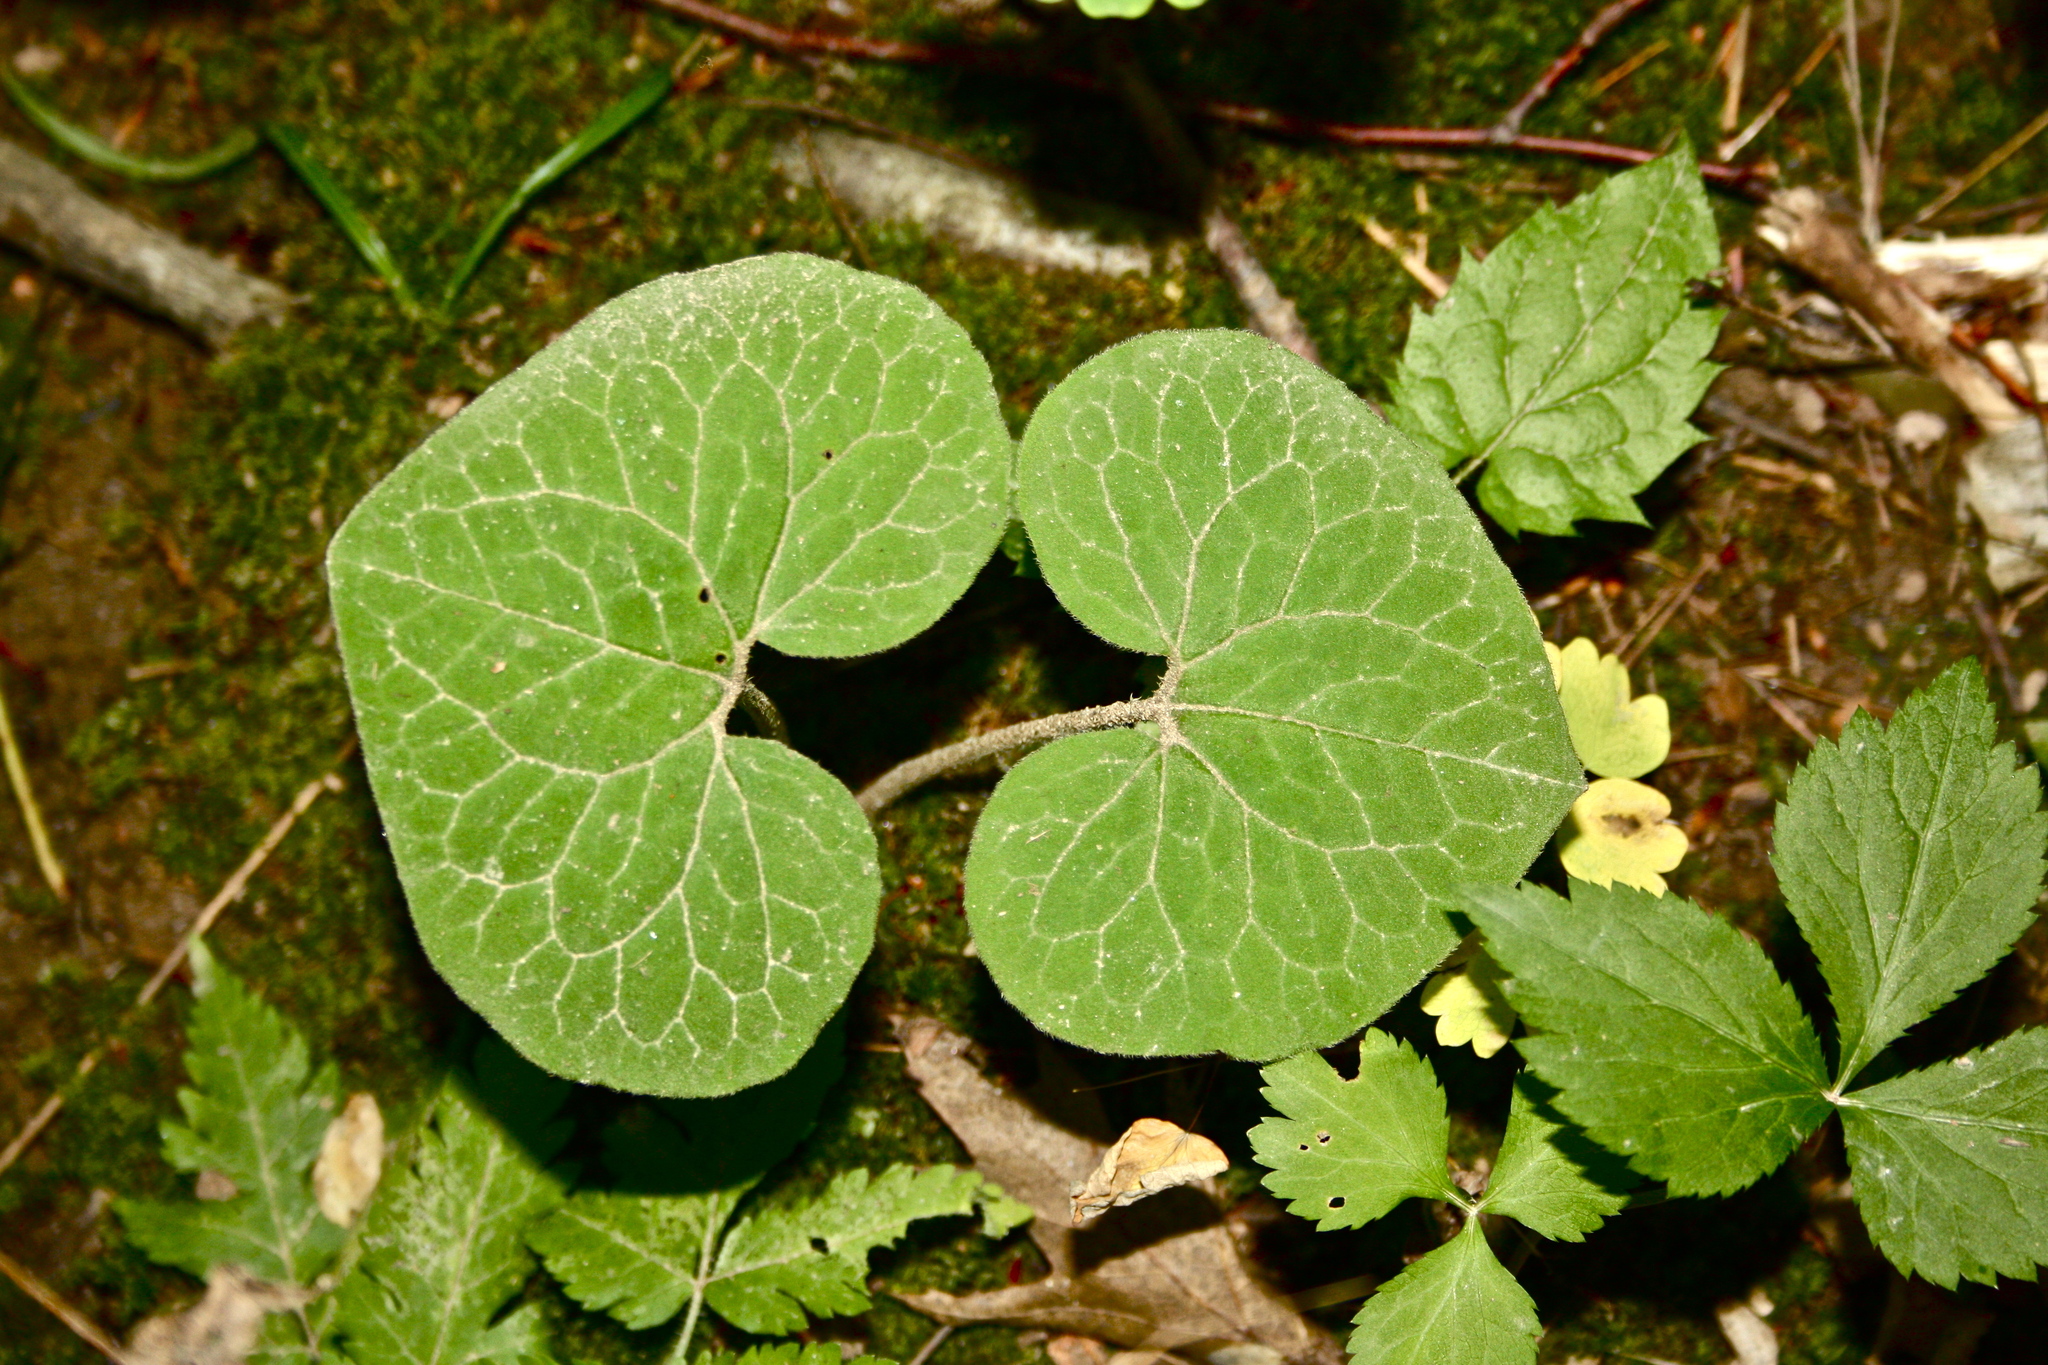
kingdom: Plantae
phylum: Tracheophyta
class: Magnoliopsida
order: Piperales
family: Aristolochiaceae
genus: Asarum
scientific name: Asarum canadense
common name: Wild ginger
